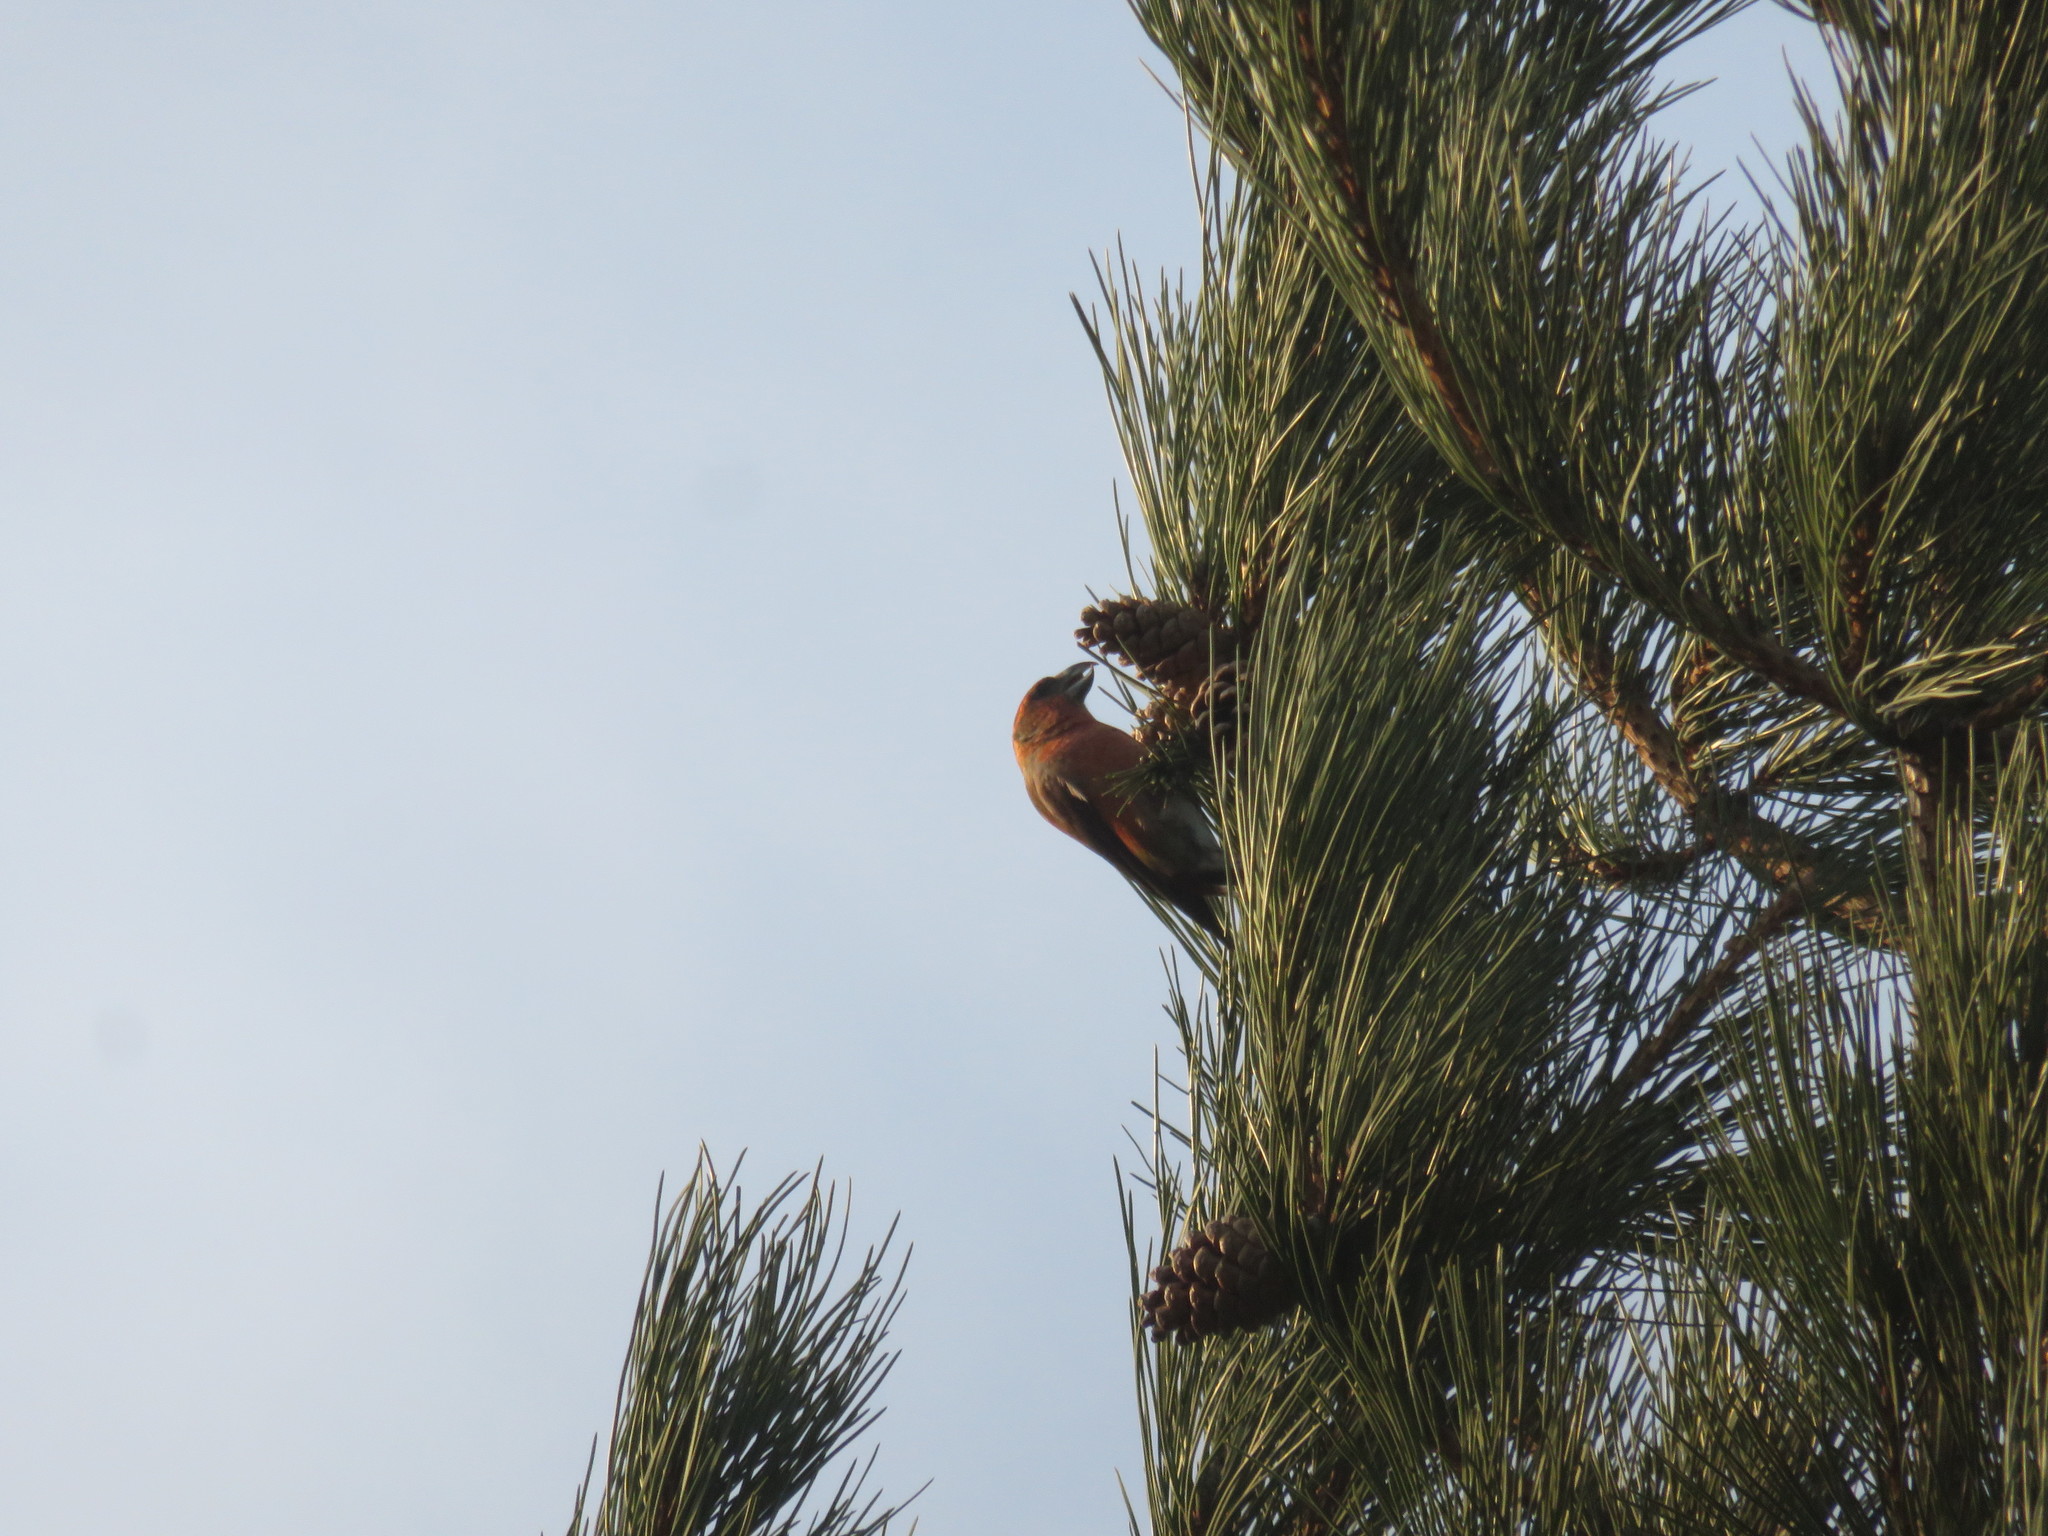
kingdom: Animalia
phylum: Chordata
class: Aves
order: Passeriformes
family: Fringillidae
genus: Loxia
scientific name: Loxia curvirostra
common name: Red crossbill
